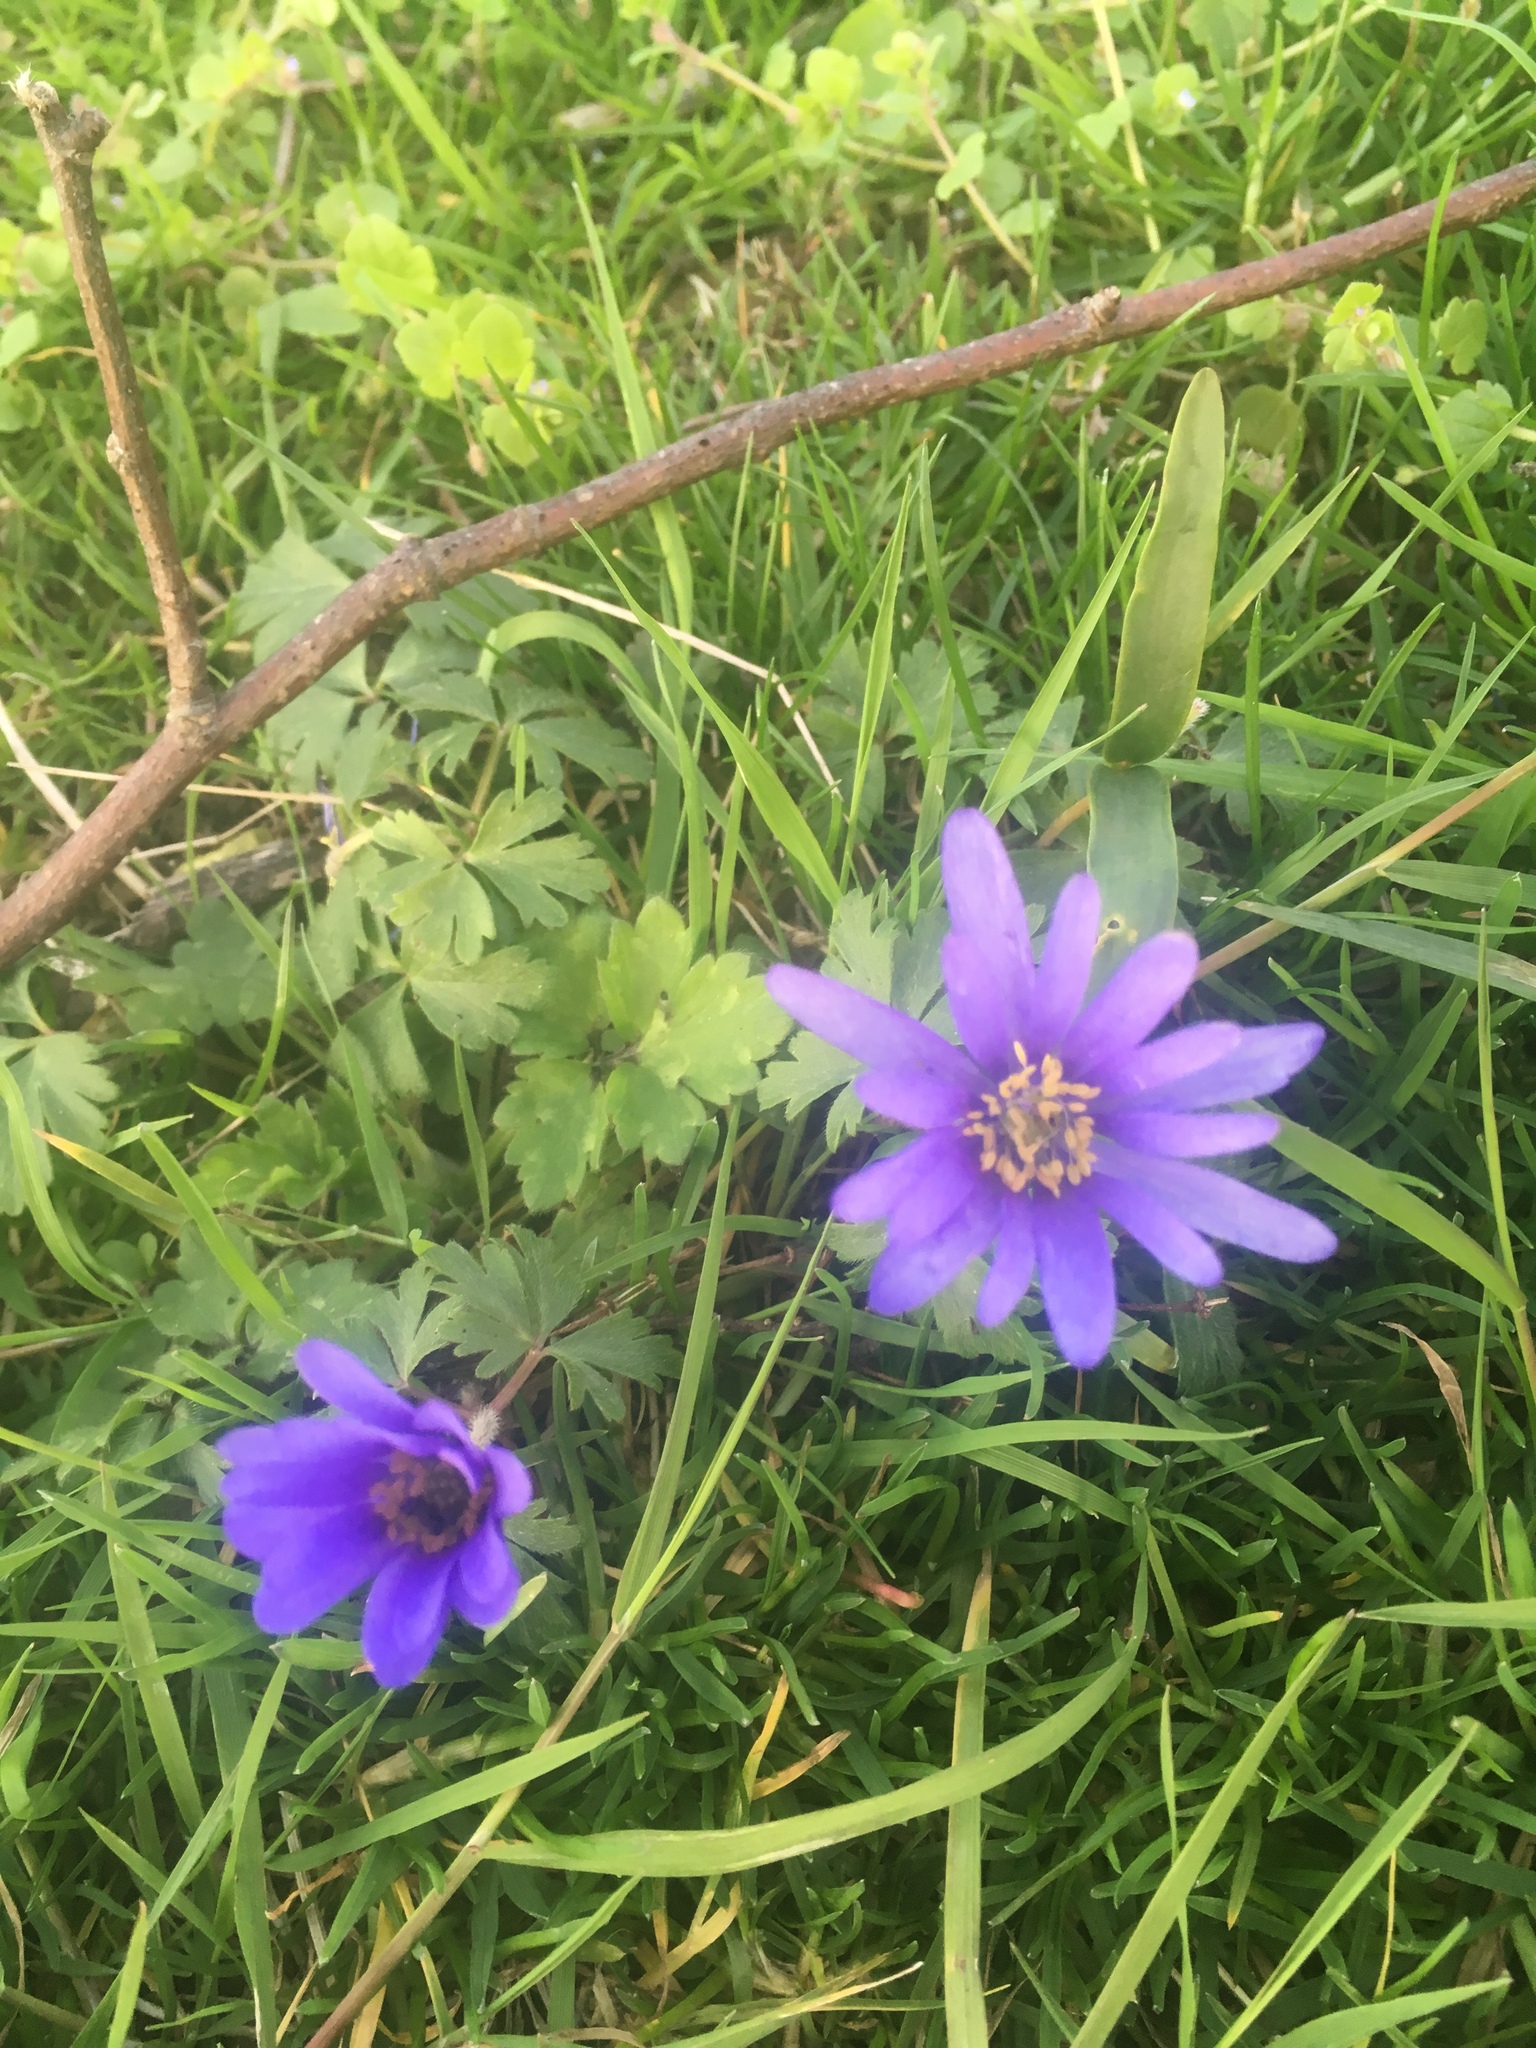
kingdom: Plantae
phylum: Tracheophyta
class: Magnoliopsida
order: Ranunculales
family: Ranunculaceae
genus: Anemone
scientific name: Anemone blanda
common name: Balkan anemone
